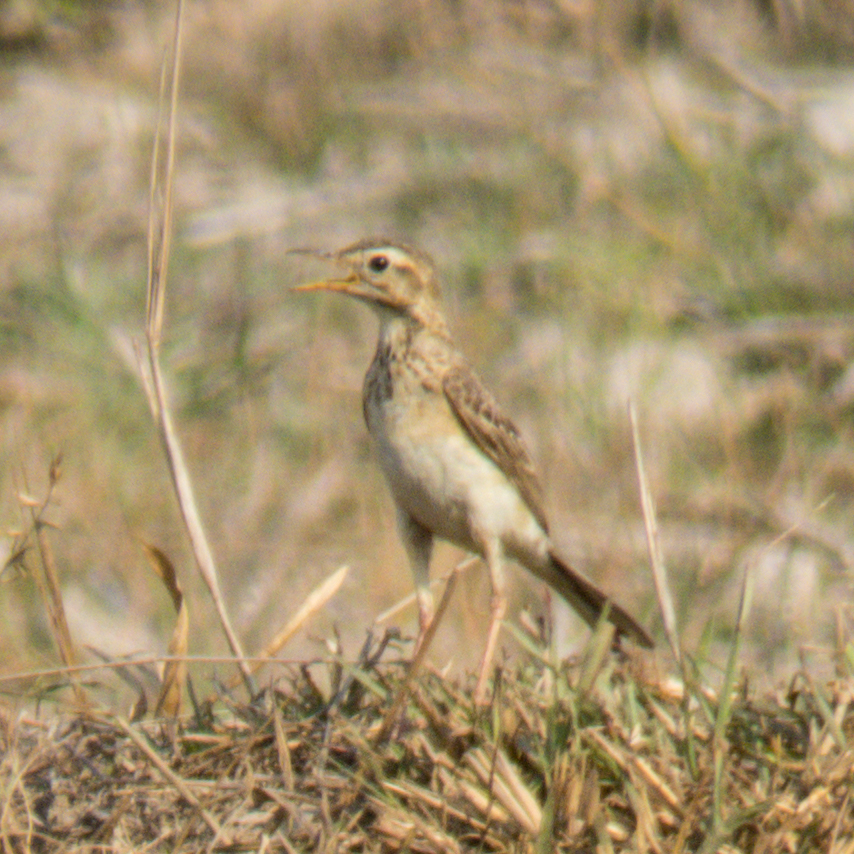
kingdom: Animalia
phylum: Chordata
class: Aves
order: Passeriformes
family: Motacillidae
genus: Anthus
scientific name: Anthus rufulus
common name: Paddyfield pipit
